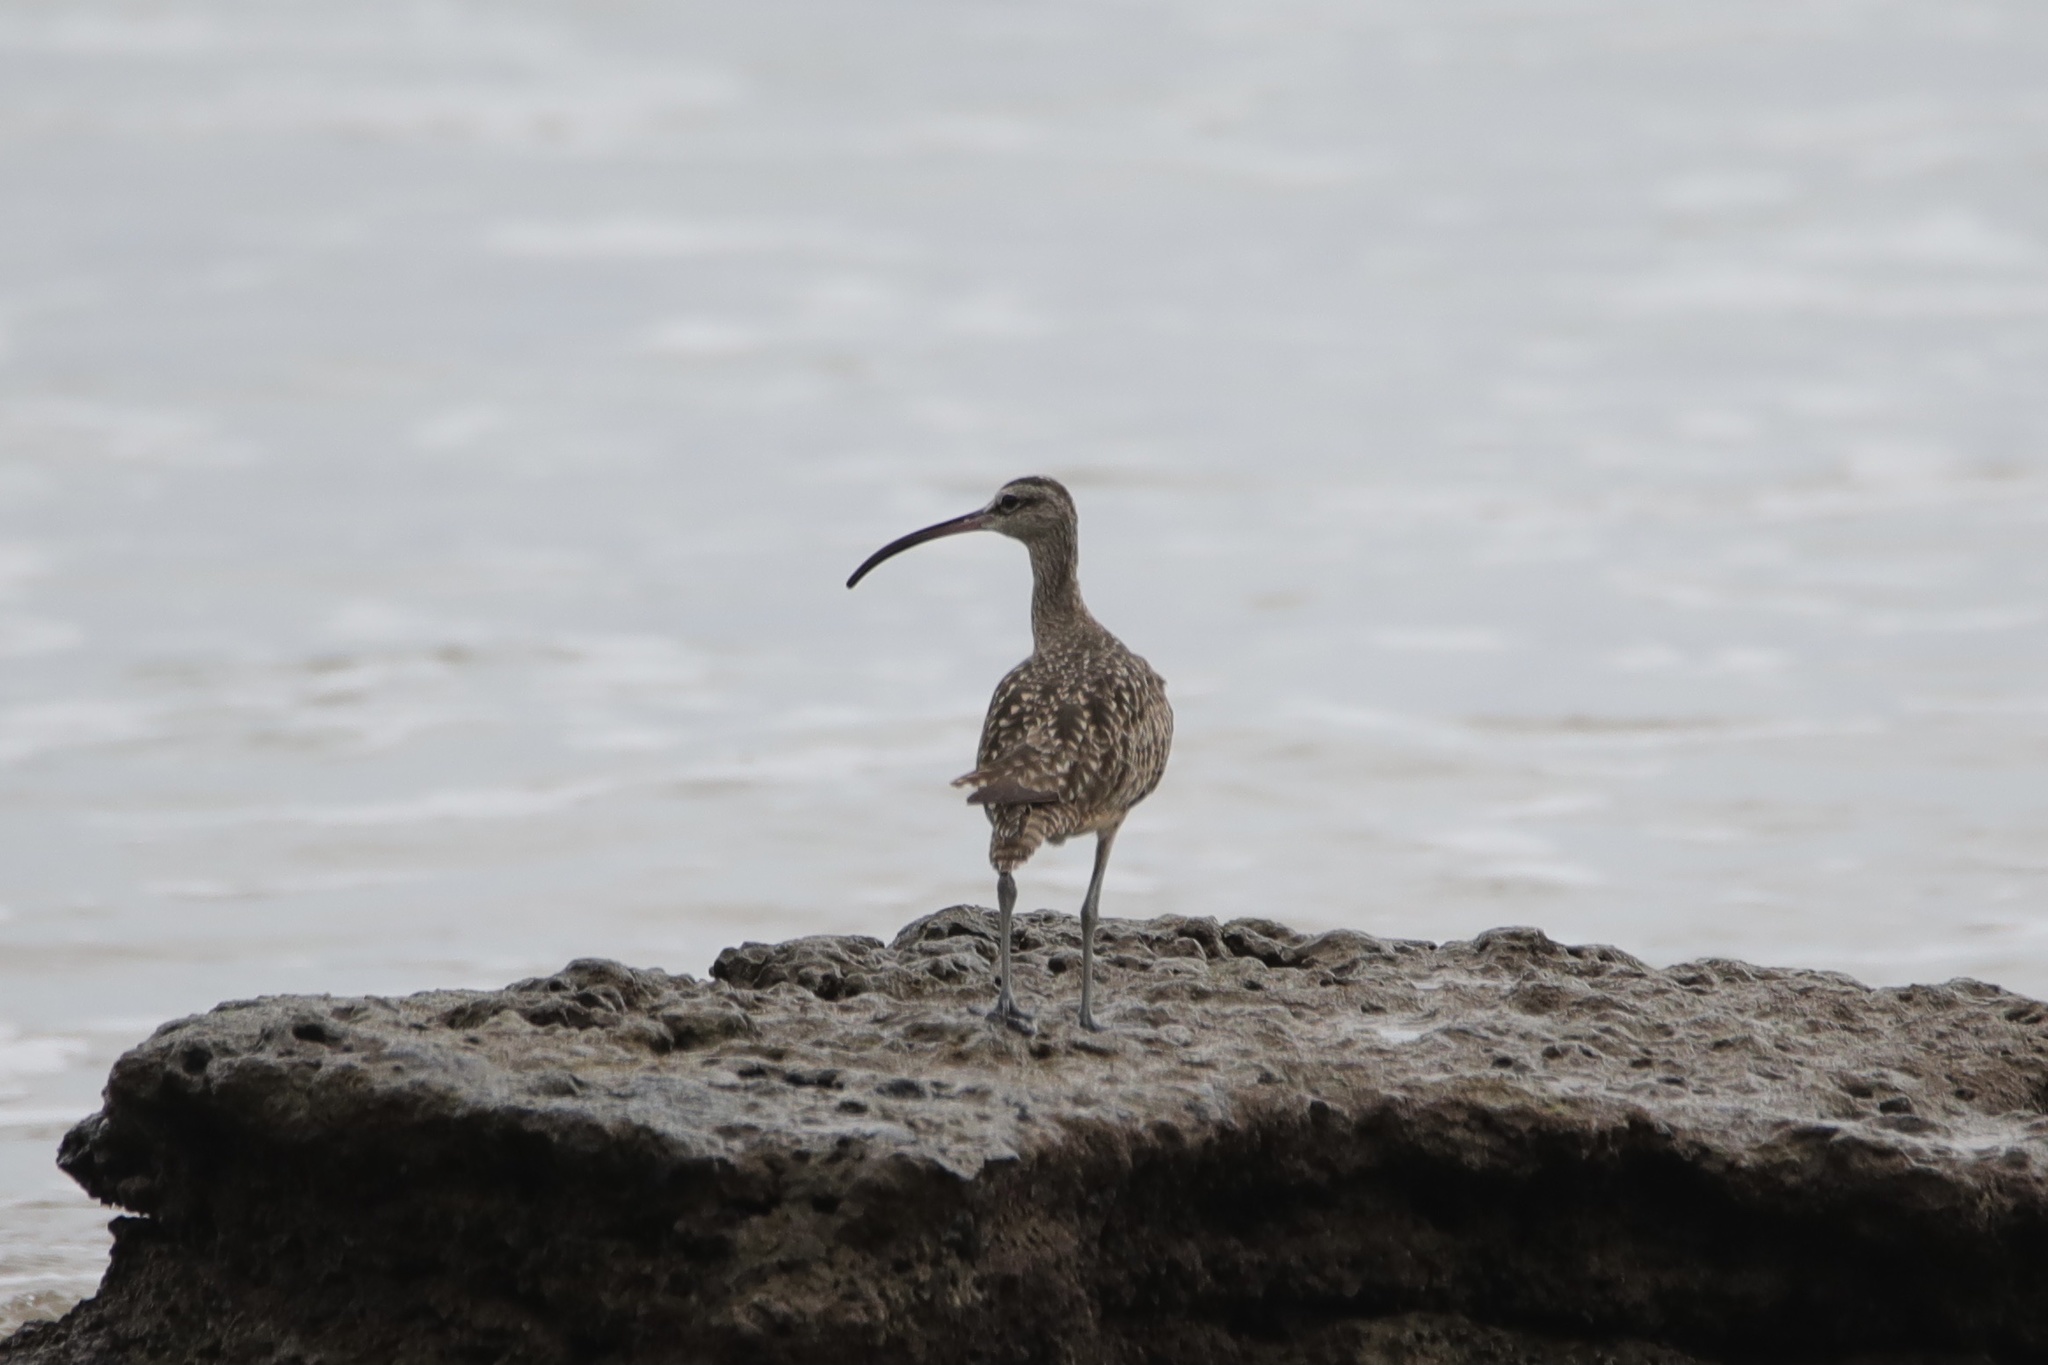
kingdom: Animalia
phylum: Chordata
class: Aves
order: Charadriiformes
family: Scolopacidae
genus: Numenius
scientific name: Numenius phaeopus
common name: Whimbrel
